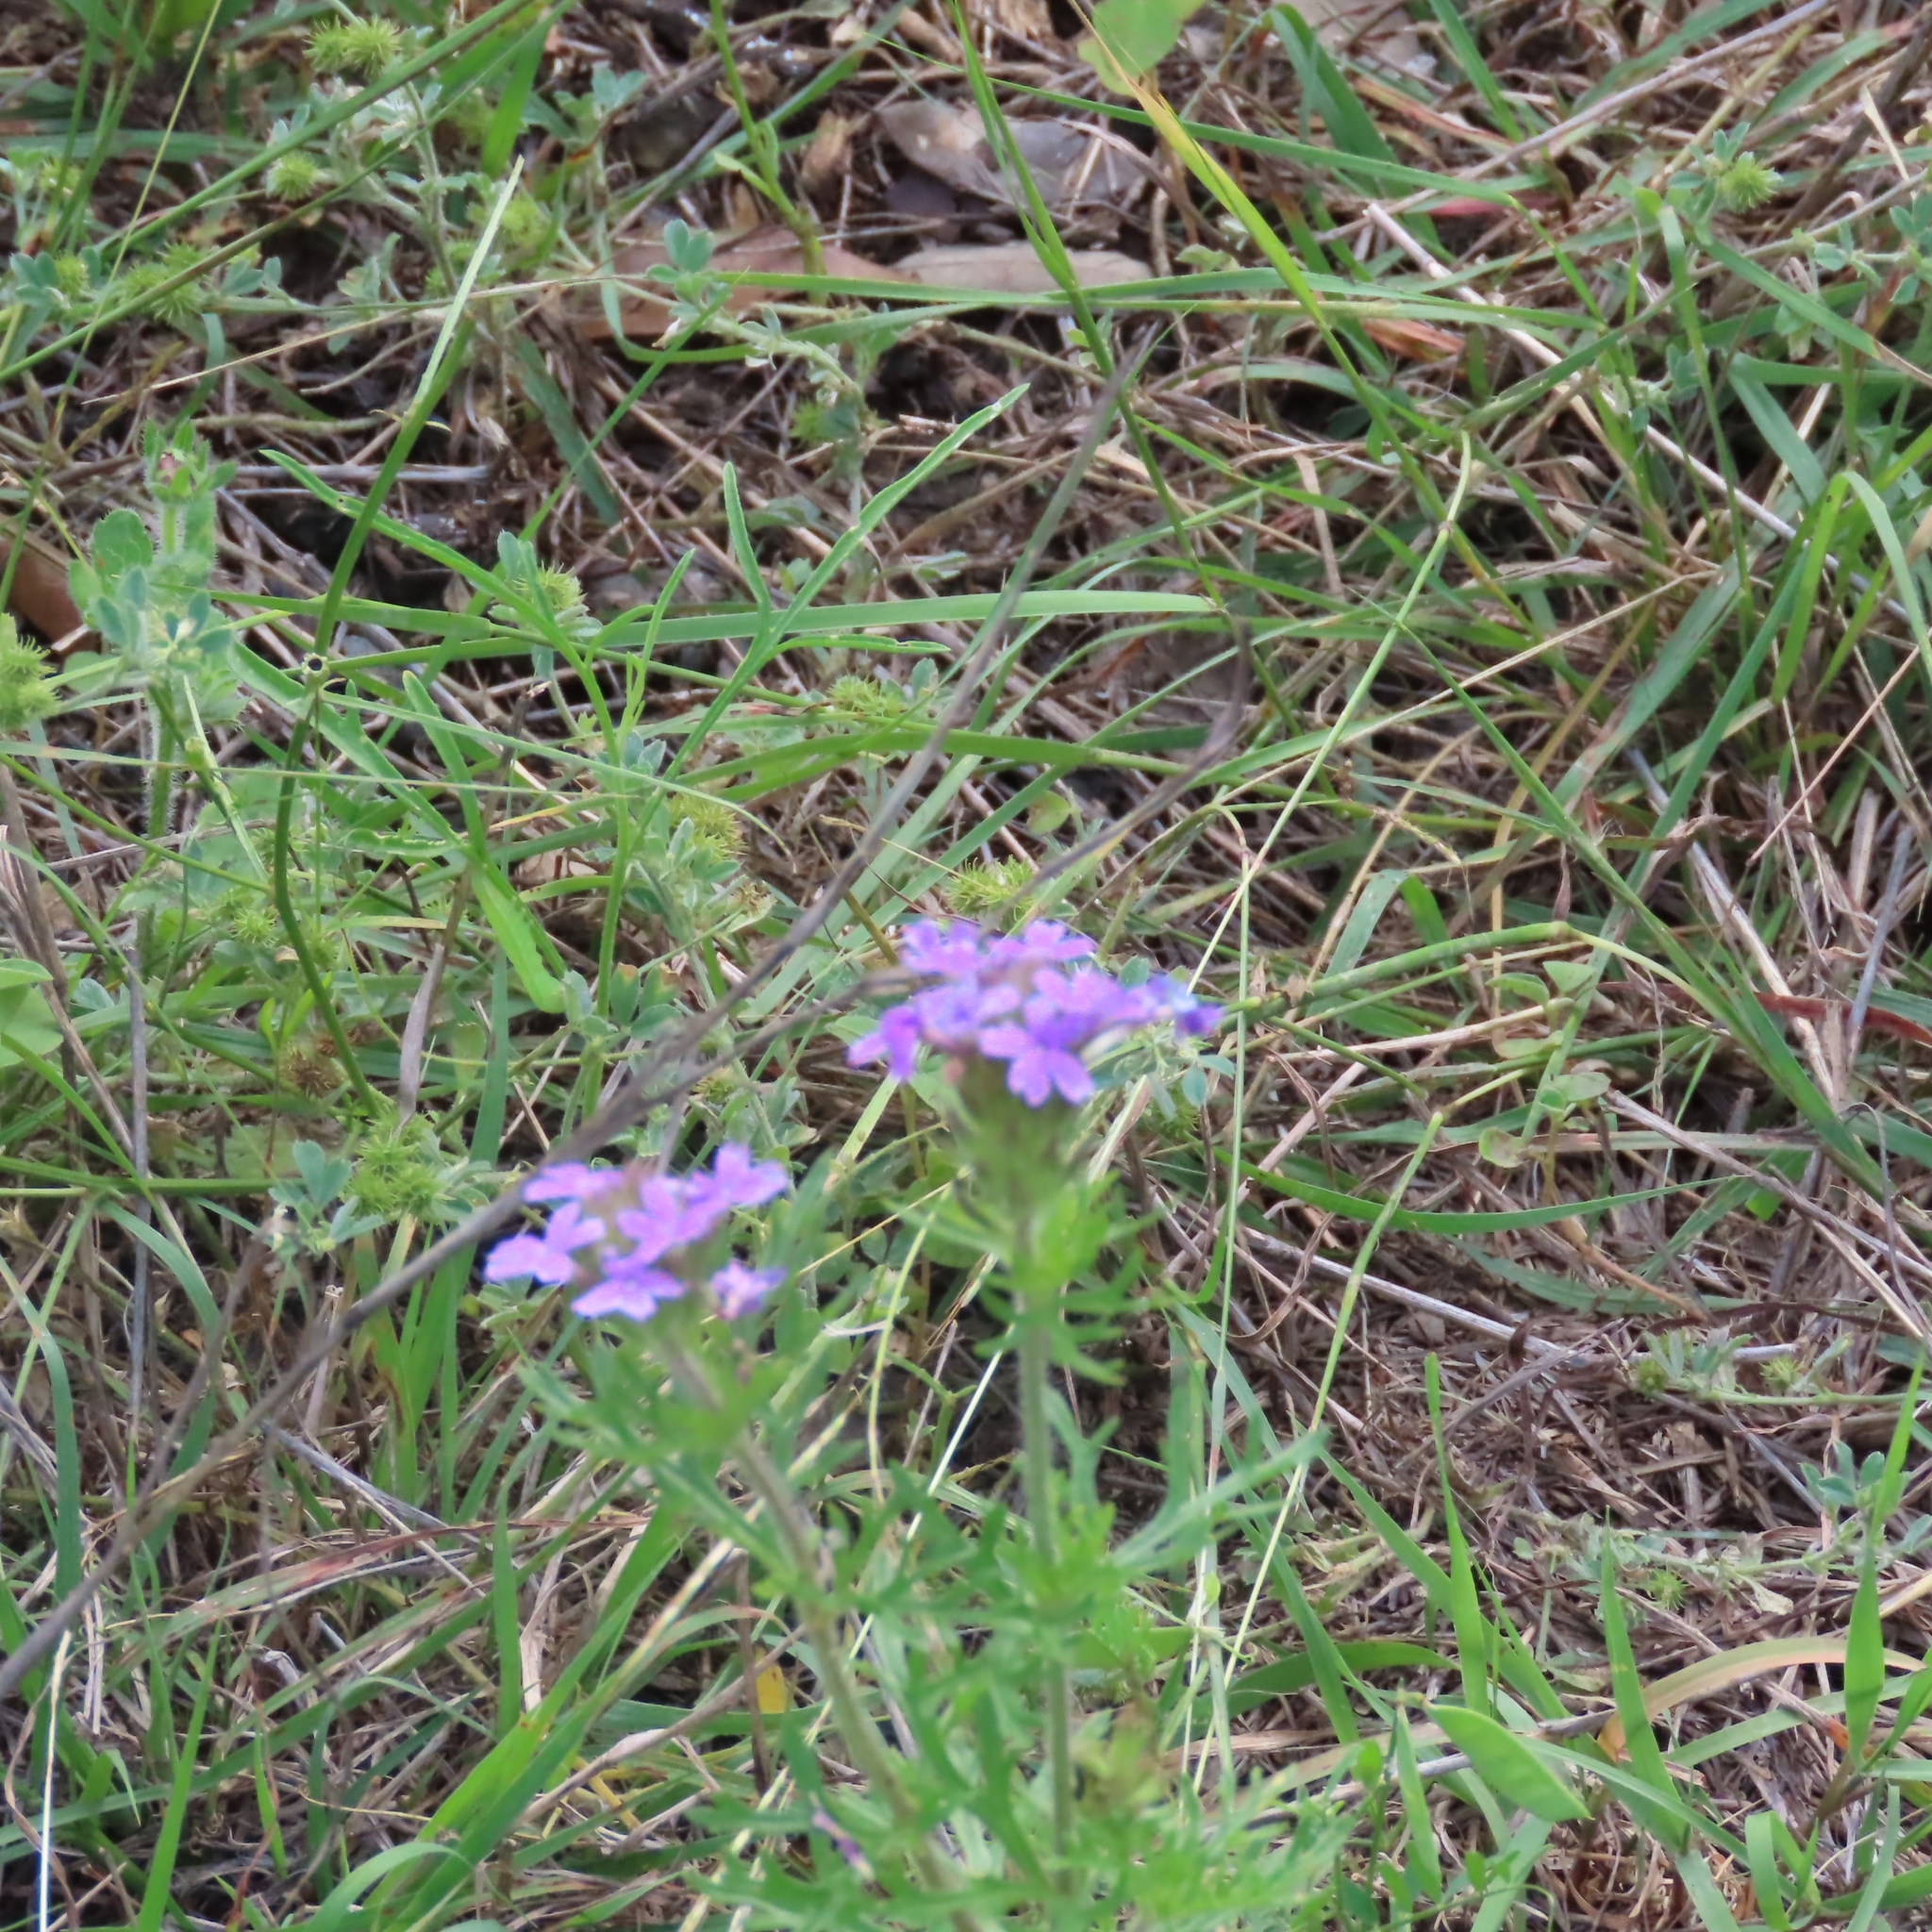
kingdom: Plantae
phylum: Tracheophyta
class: Magnoliopsida
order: Lamiales
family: Verbenaceae
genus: Verbena
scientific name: Verbena bipinnatifida
